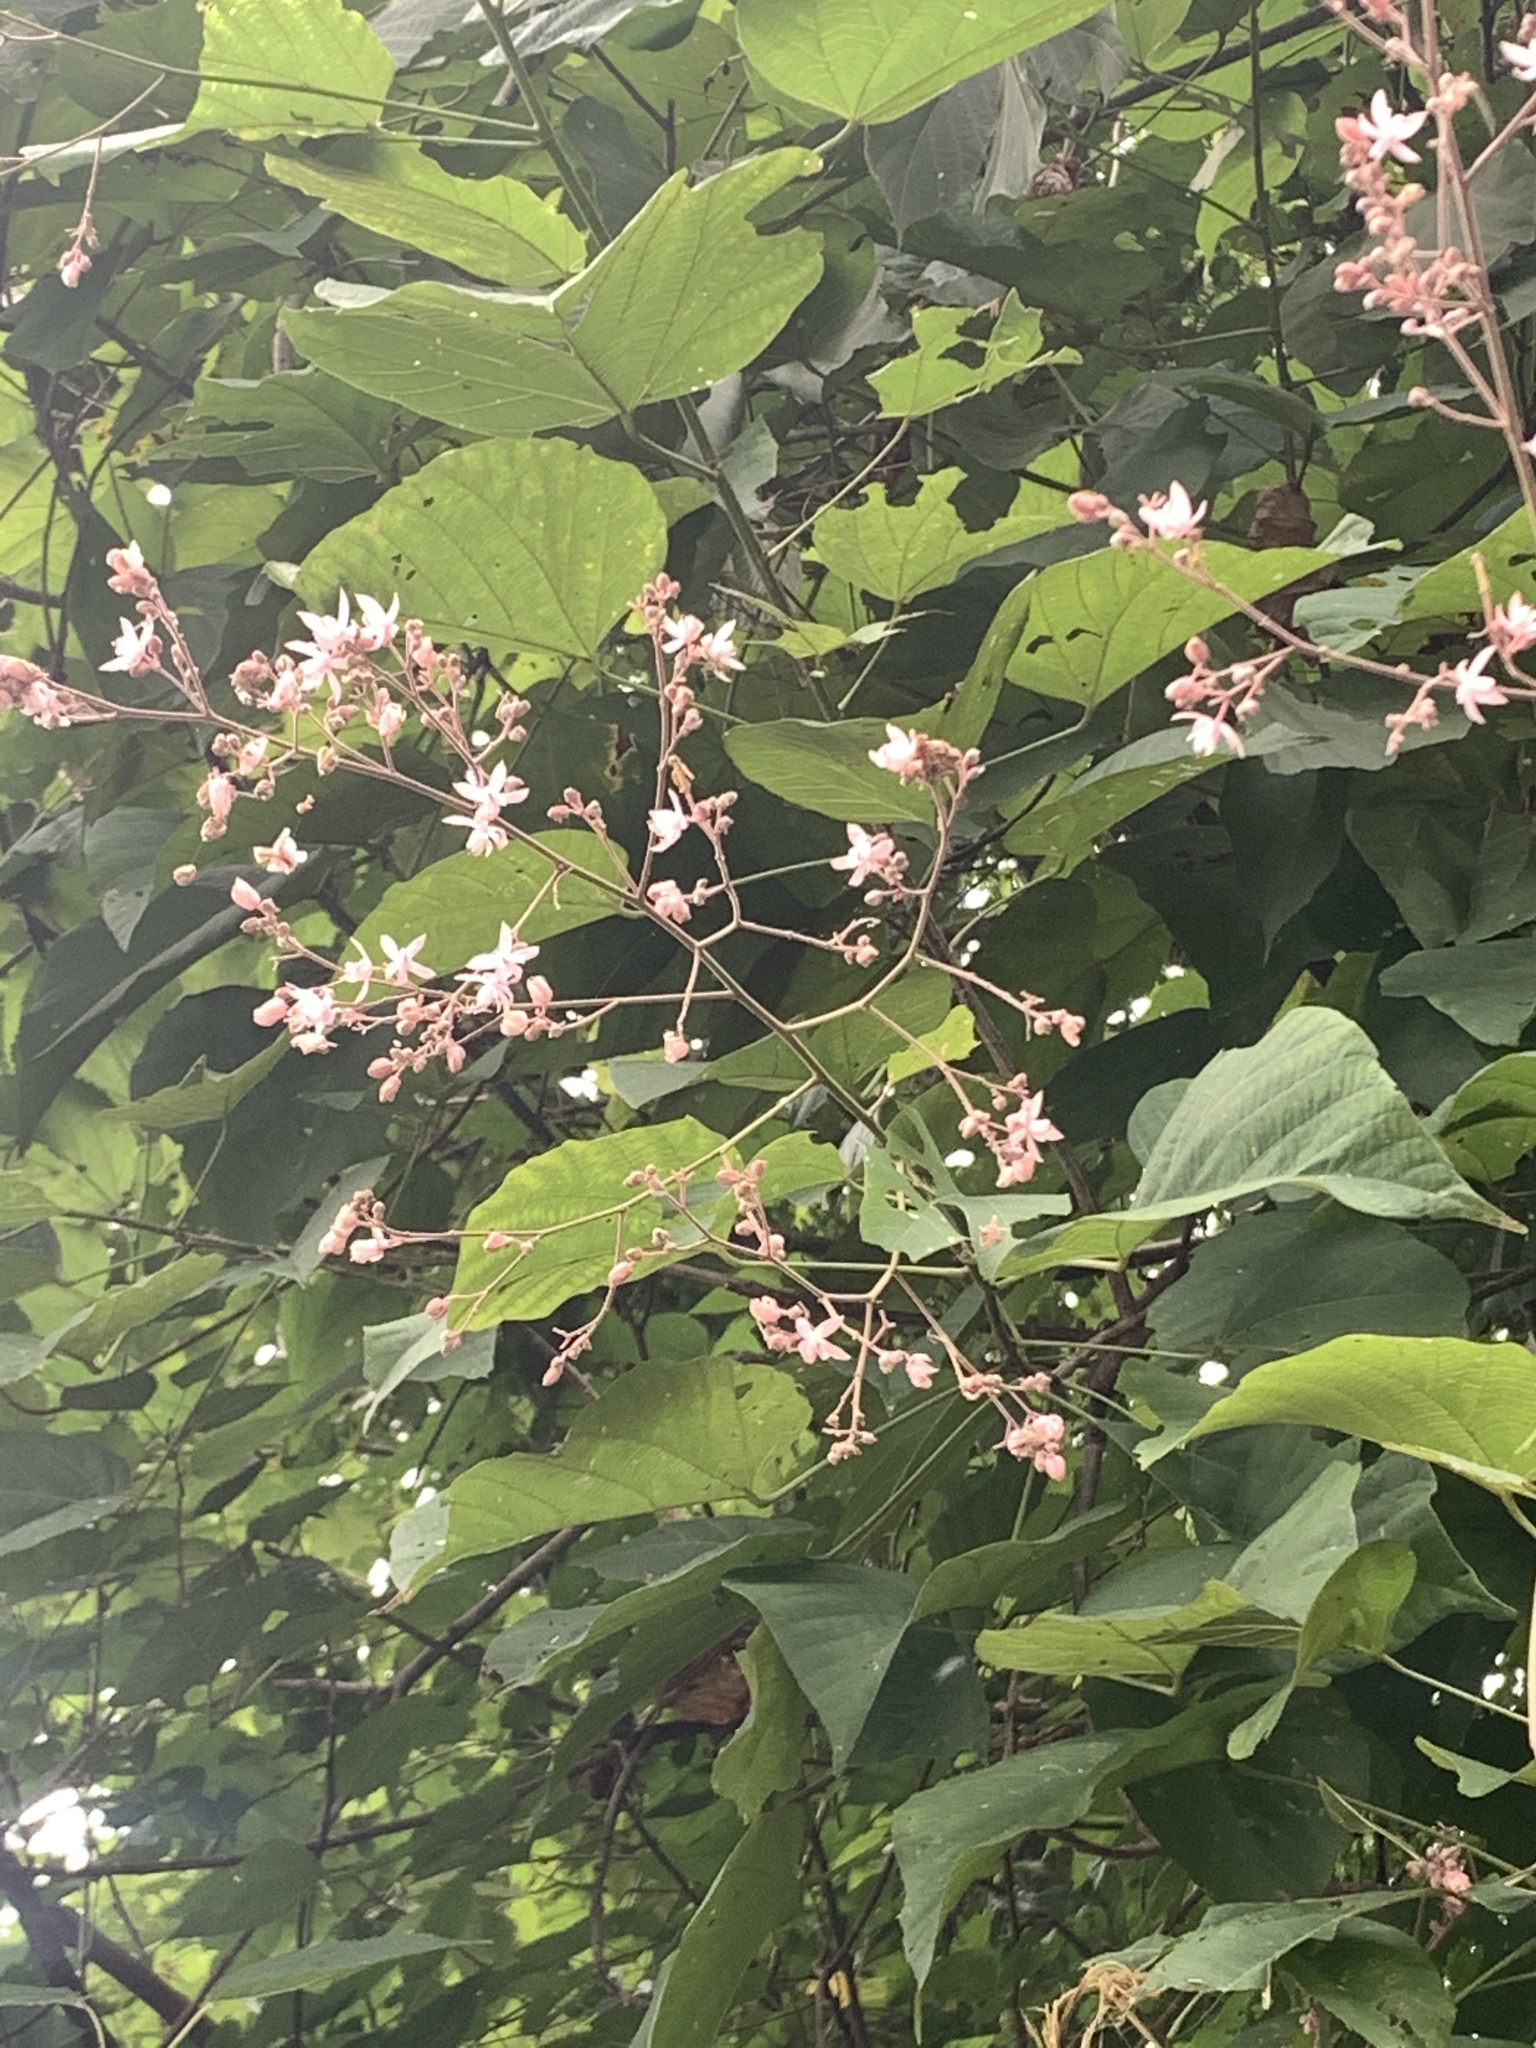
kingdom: Plantae
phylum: Tracheophyta
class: Magnoliopsida
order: Malvales
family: Malvaceae
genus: Kleinhovia
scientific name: Kleinhovia hospita
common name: Guest-tree
